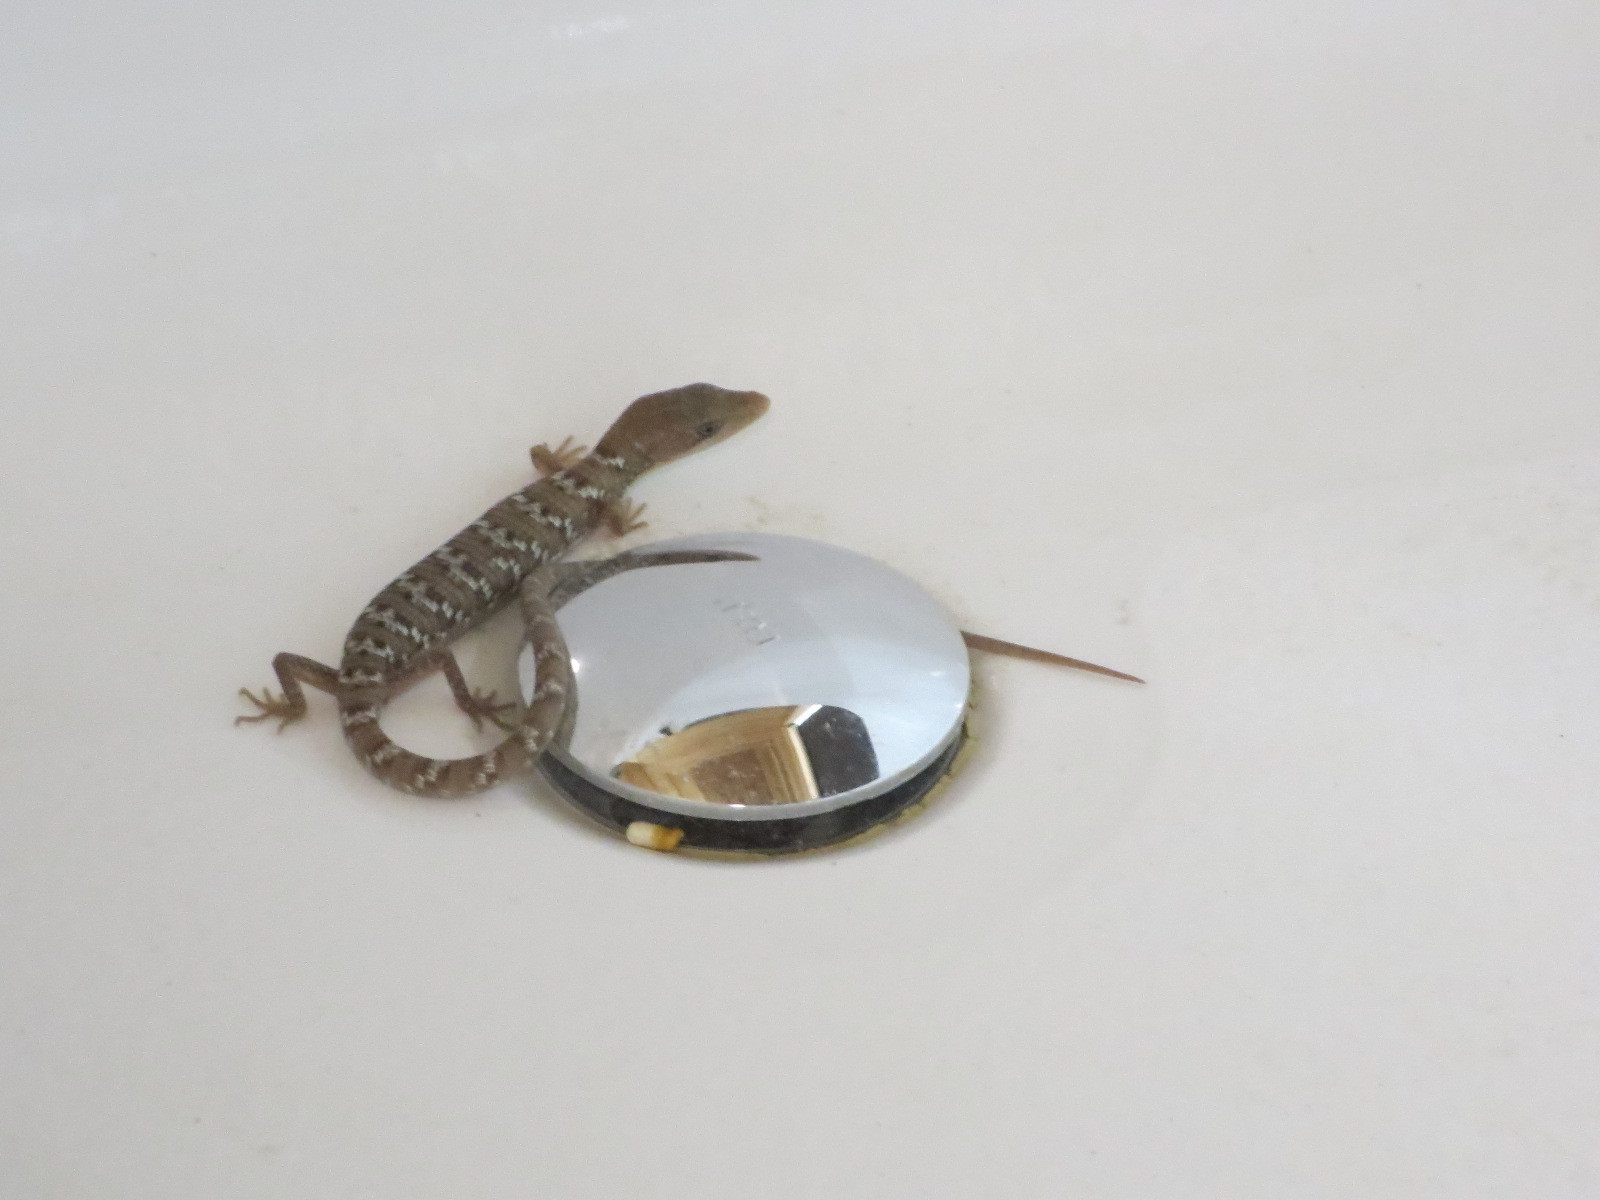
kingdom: Animalia
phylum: Chordata
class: Squamata
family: Anguidae
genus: Gerrhonotus
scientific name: Gerrhonotus infernalis
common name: Texas alligator lizard
